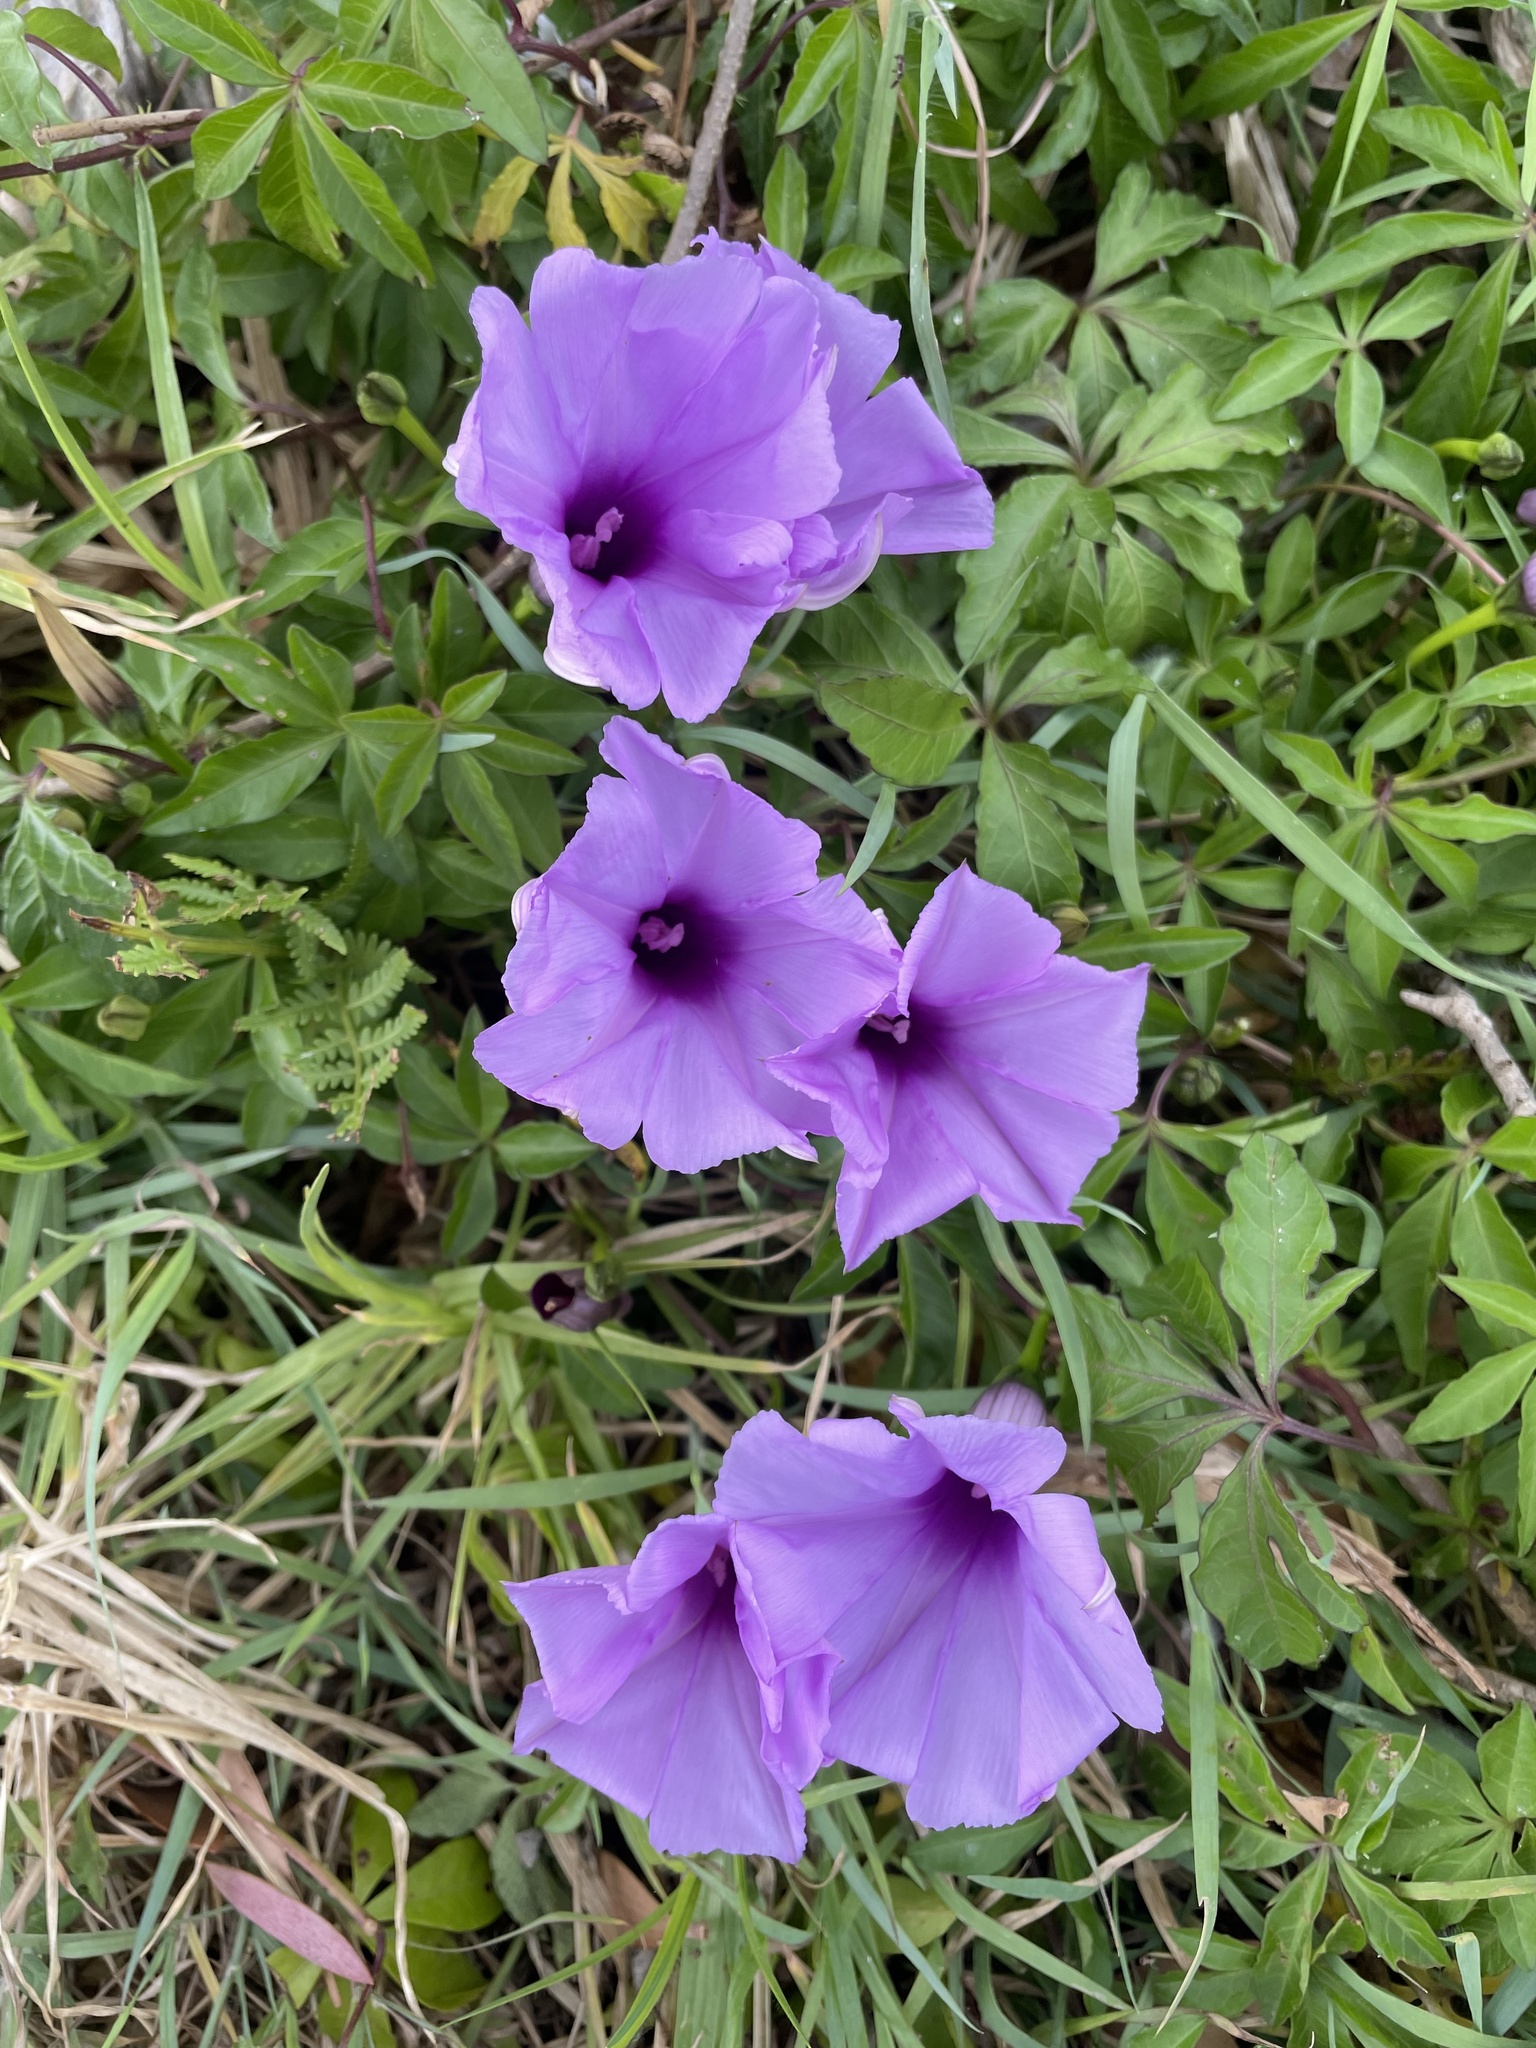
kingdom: Plantae
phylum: Tracheophyta
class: Magnoliopsida
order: Solanales
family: Convolvulaceae
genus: Ipomoea
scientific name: Ipomoea cairica
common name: Mile a minute vine
